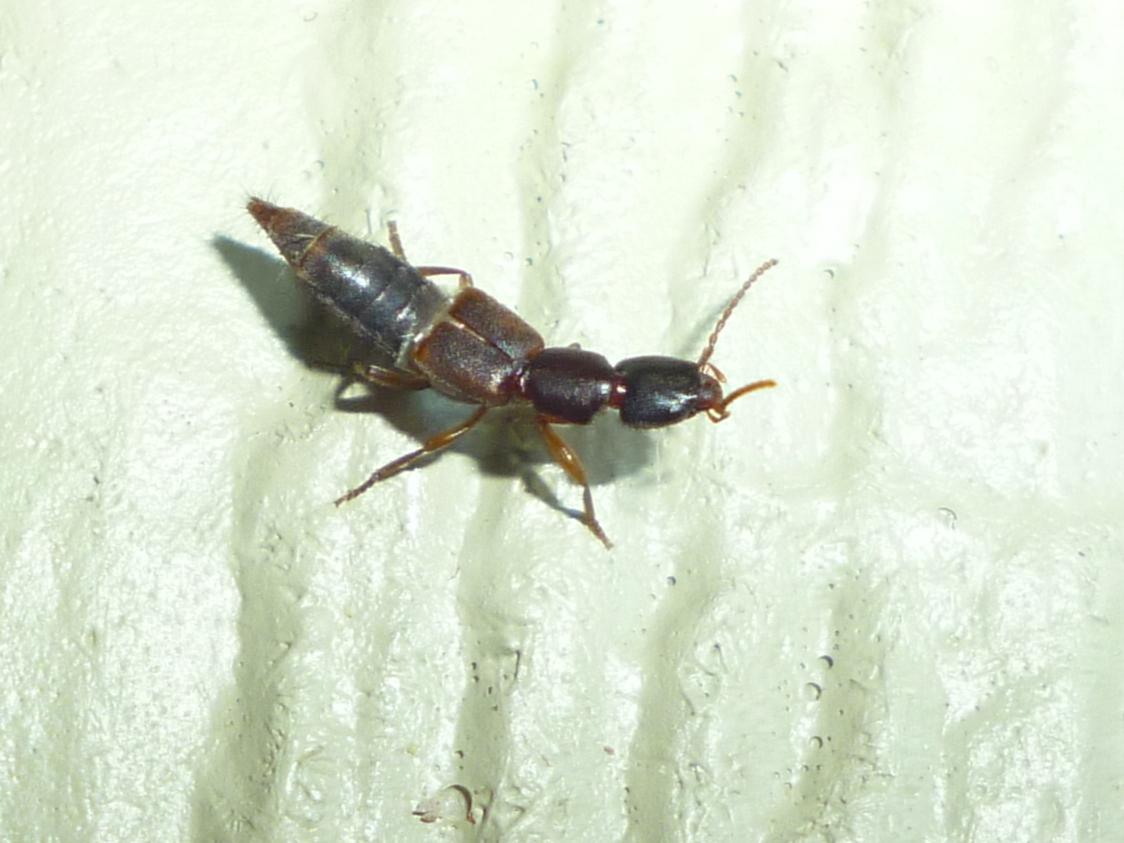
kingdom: Animalia
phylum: Arthropoda
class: Insecta
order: Coleoptera
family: Staphylinidae
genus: Achenomorphus
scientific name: Achenomorphus corticinus
